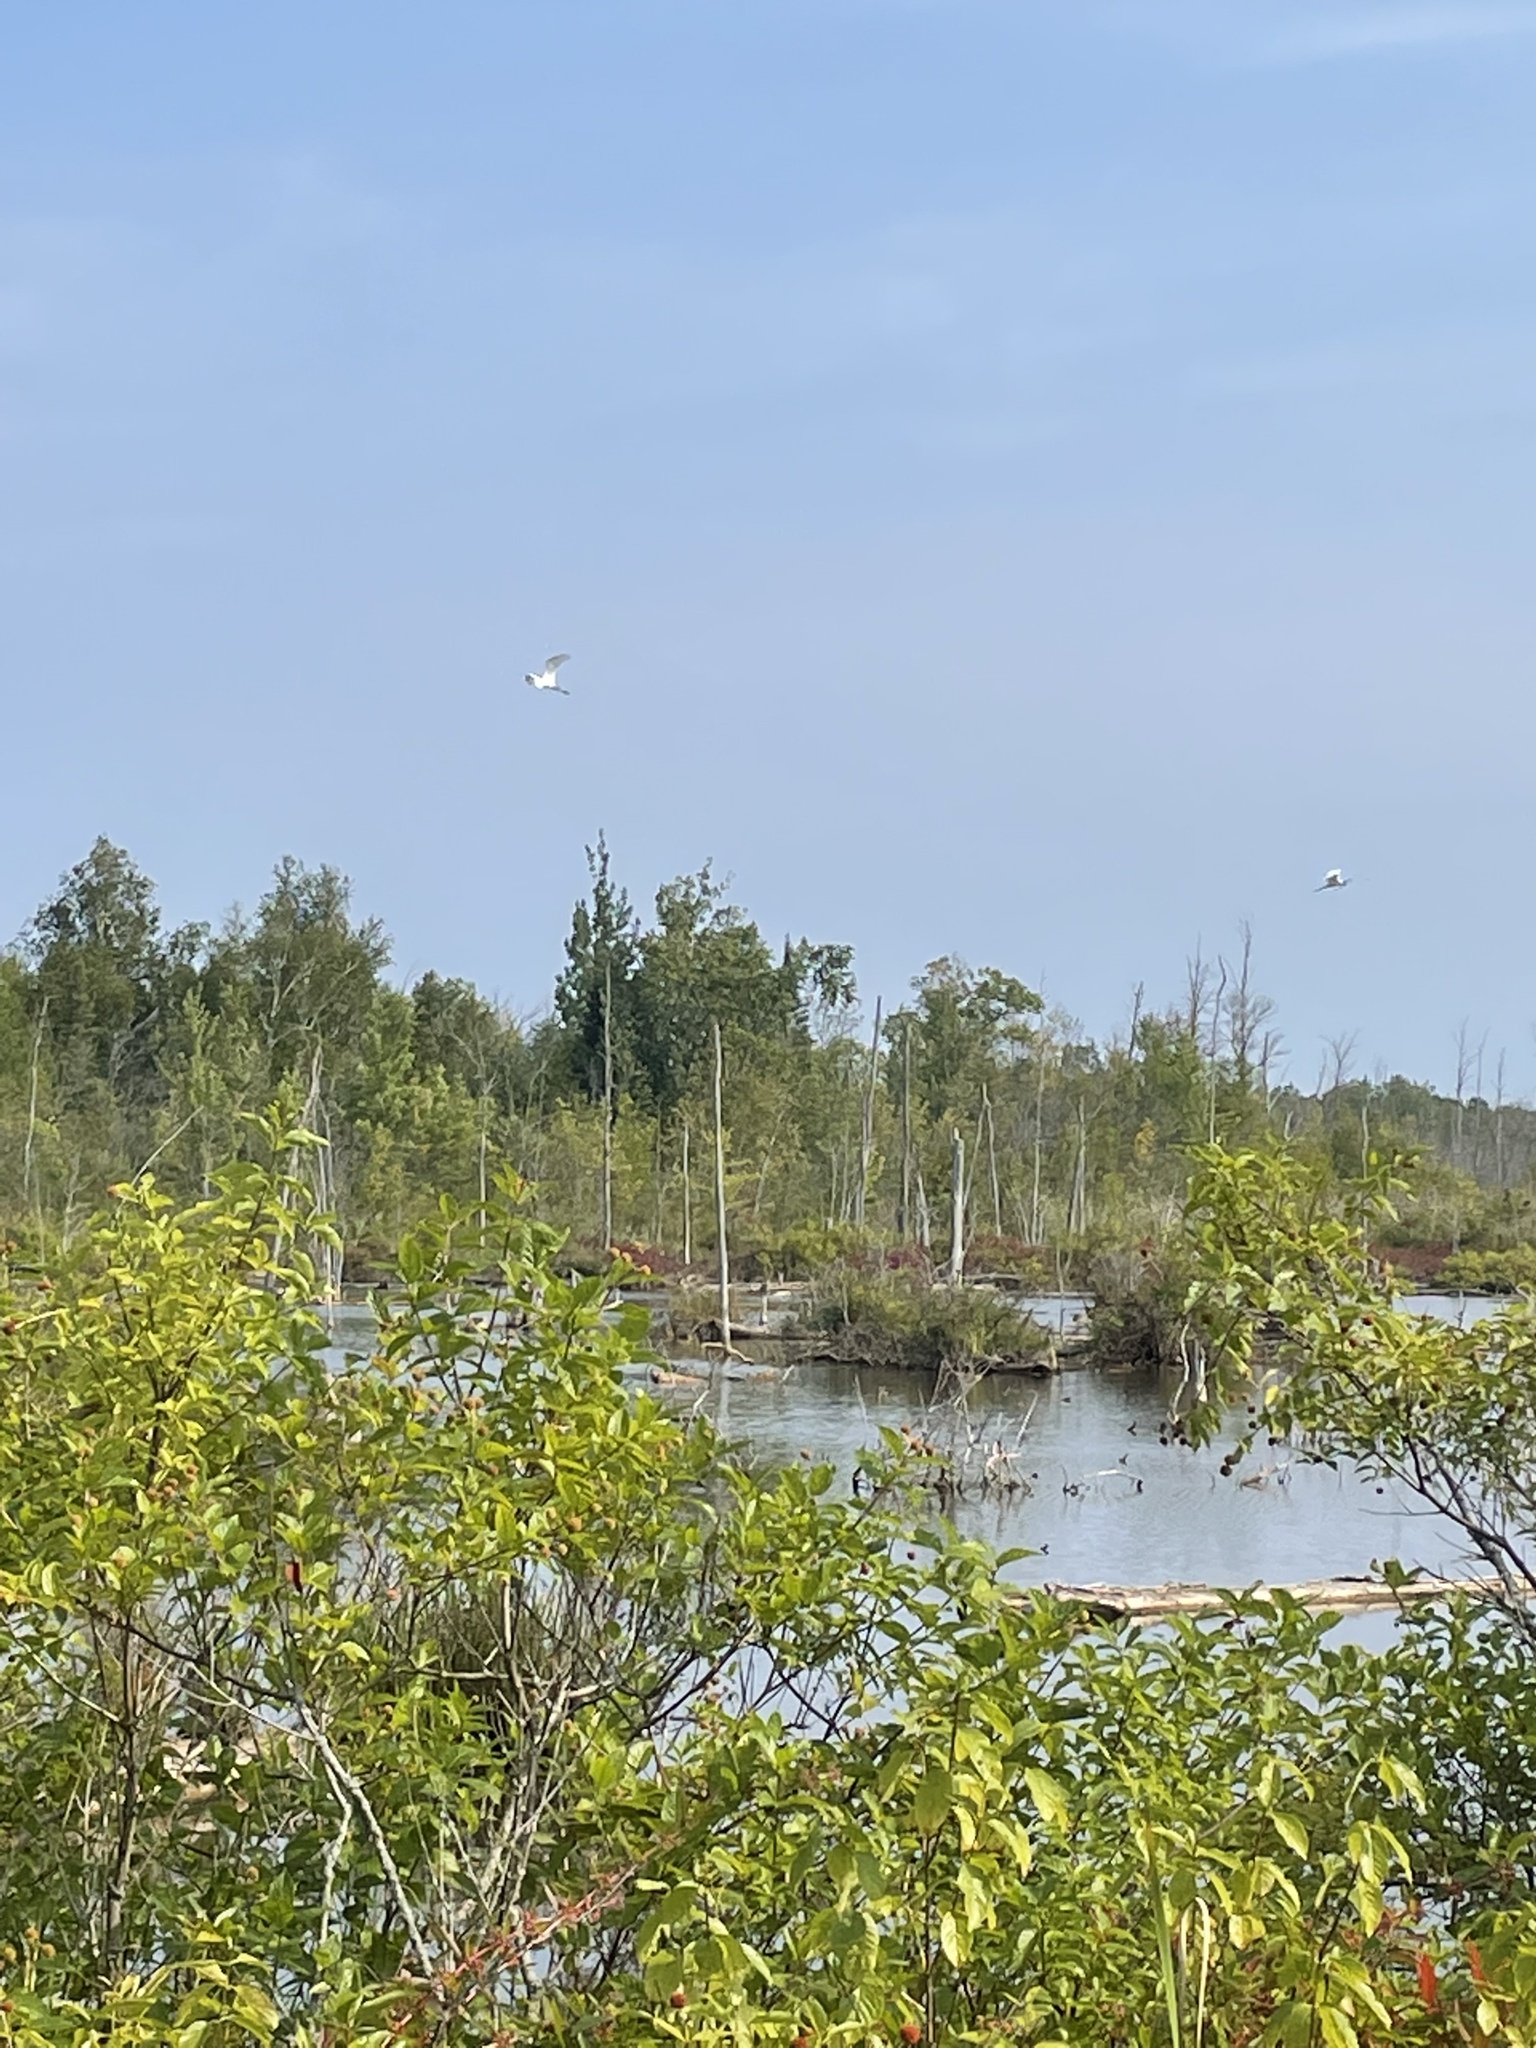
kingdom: Animalia
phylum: Chordata
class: Aves
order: Pelecaniformes
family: Ardeidae
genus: Ardea
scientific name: Ardea alba
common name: Great egret
